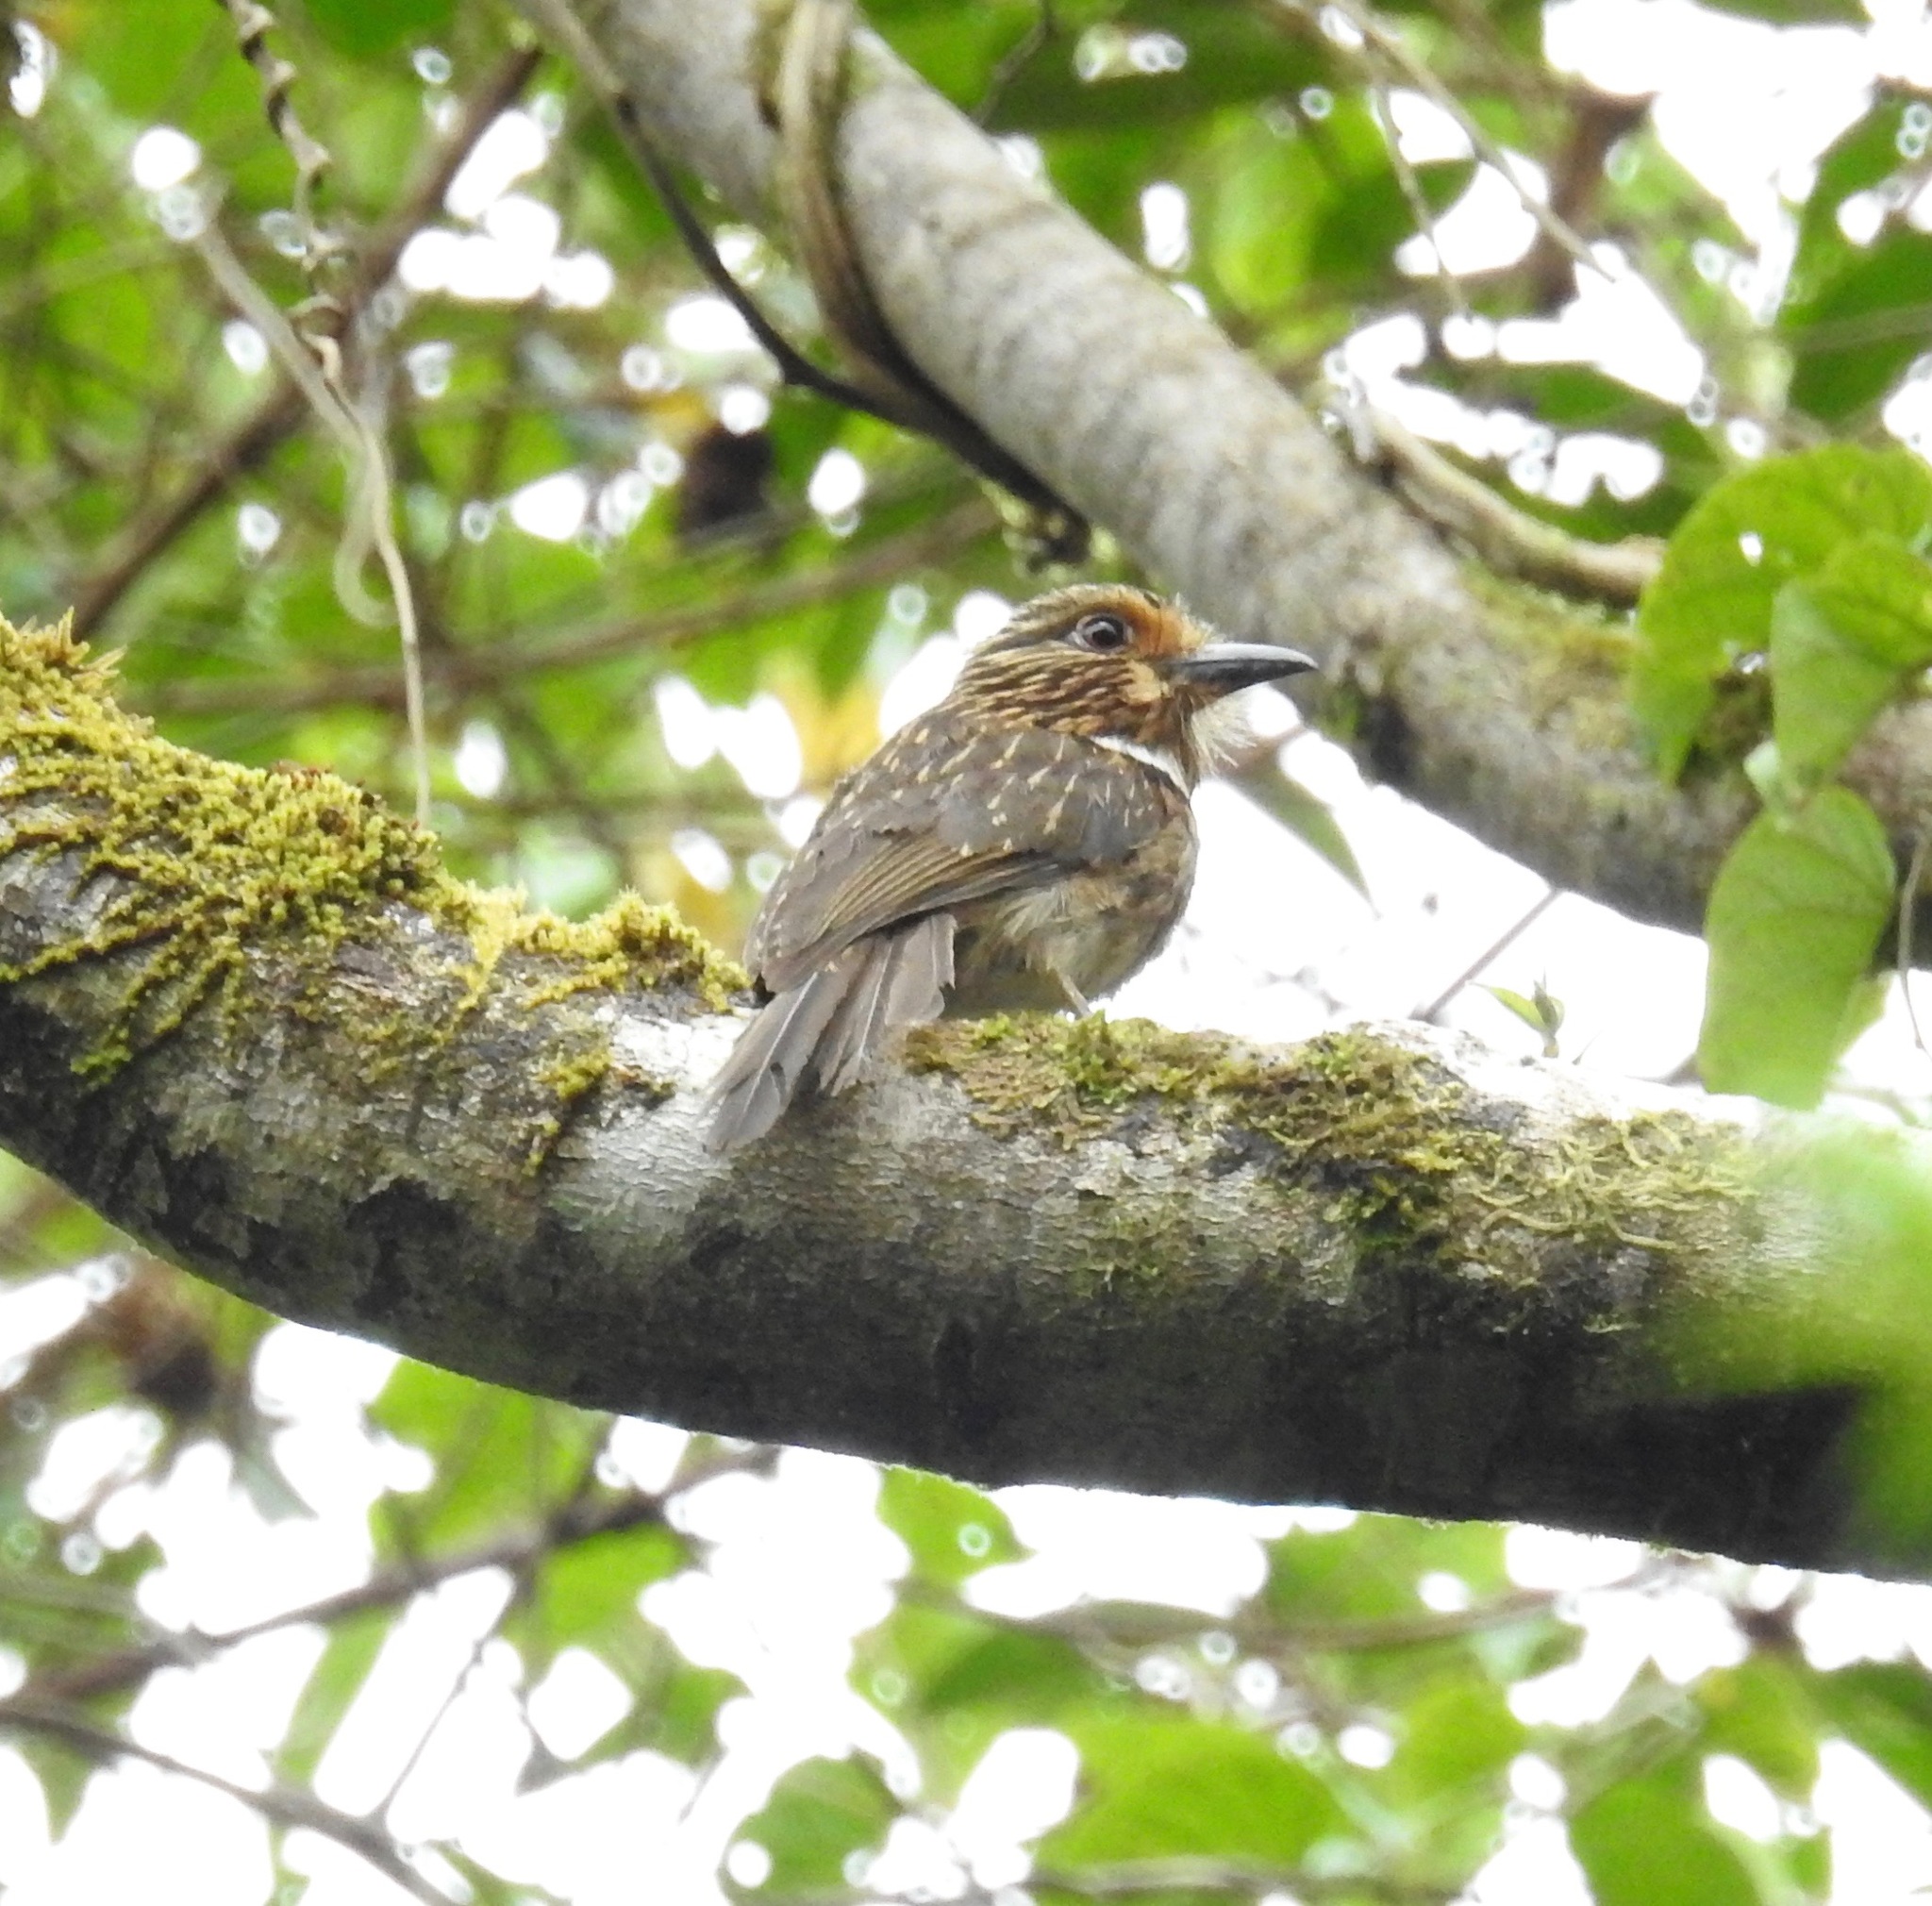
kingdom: Animalia
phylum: Chordata
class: Aves
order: Piciformes
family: Bucconidae
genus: Malacoptila
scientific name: Malacoptila striata
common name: Crescent-chested puffbird
